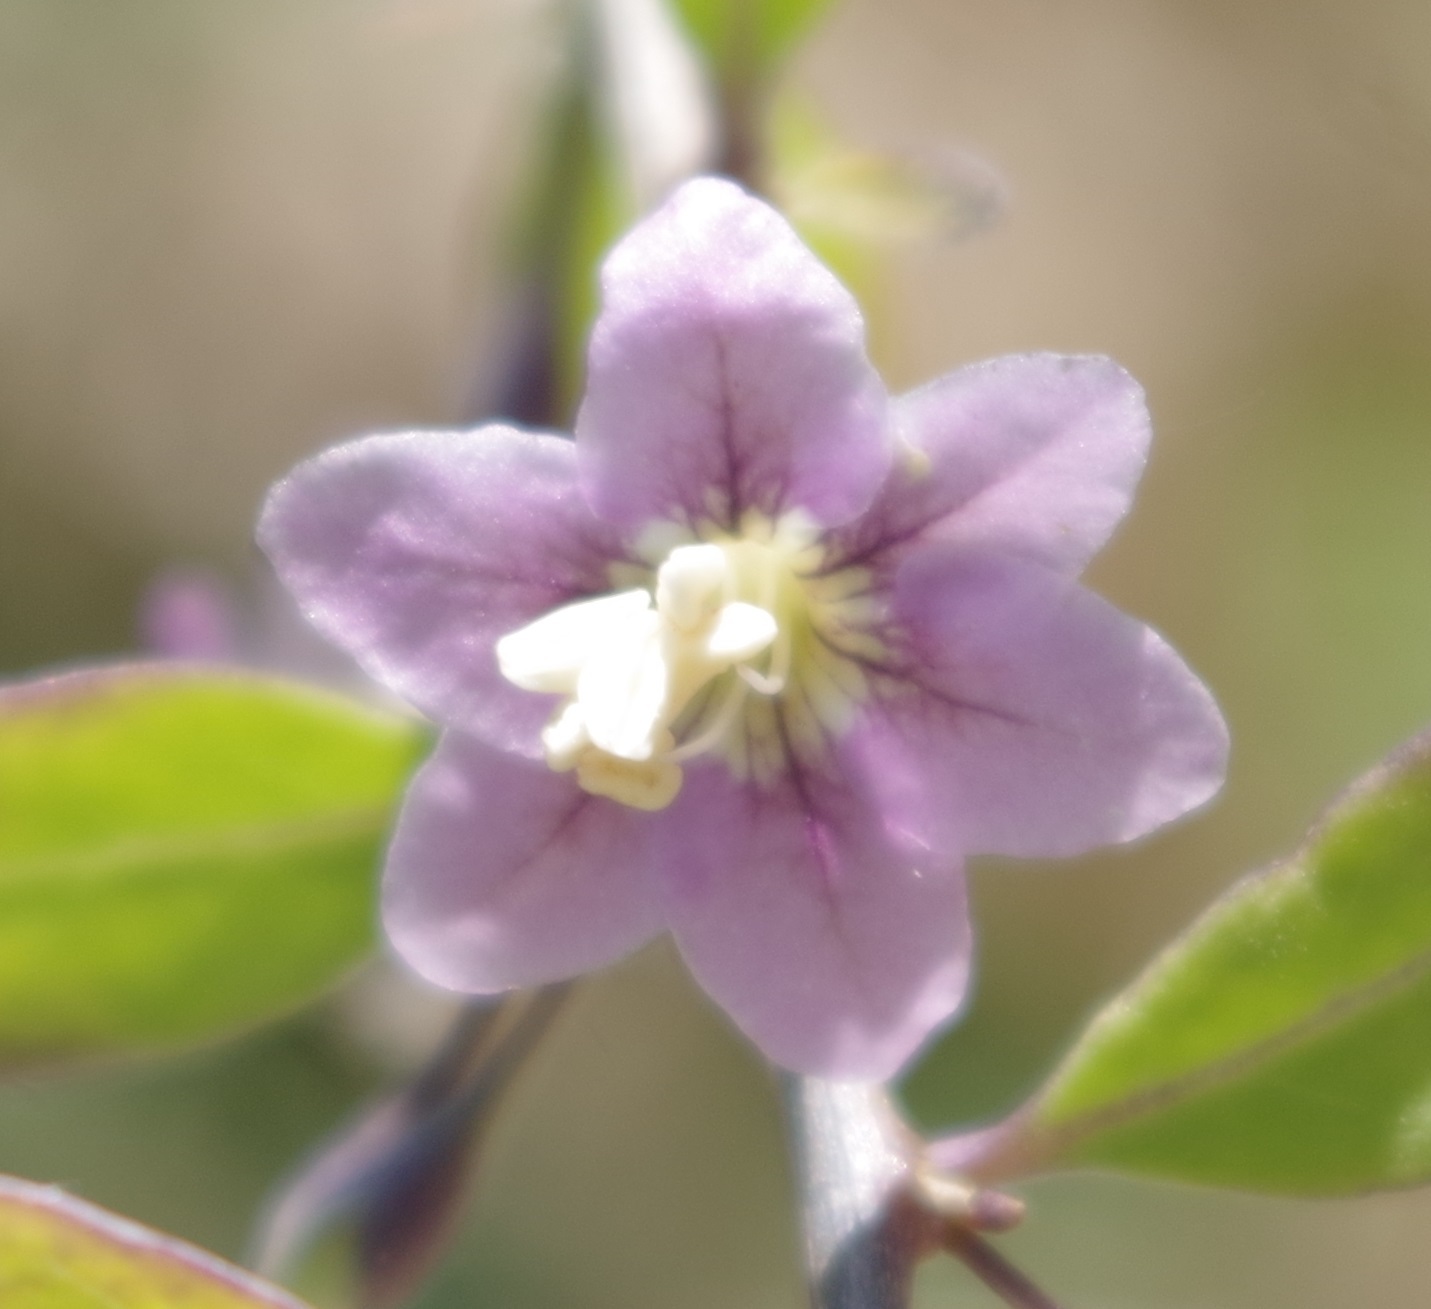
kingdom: Plantae
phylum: Tracheophyta
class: Magnoliopsida
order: Solanales
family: Solanaceae
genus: Lycium
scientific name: Lycium barbarum
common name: Duke of argyll's teaplant
